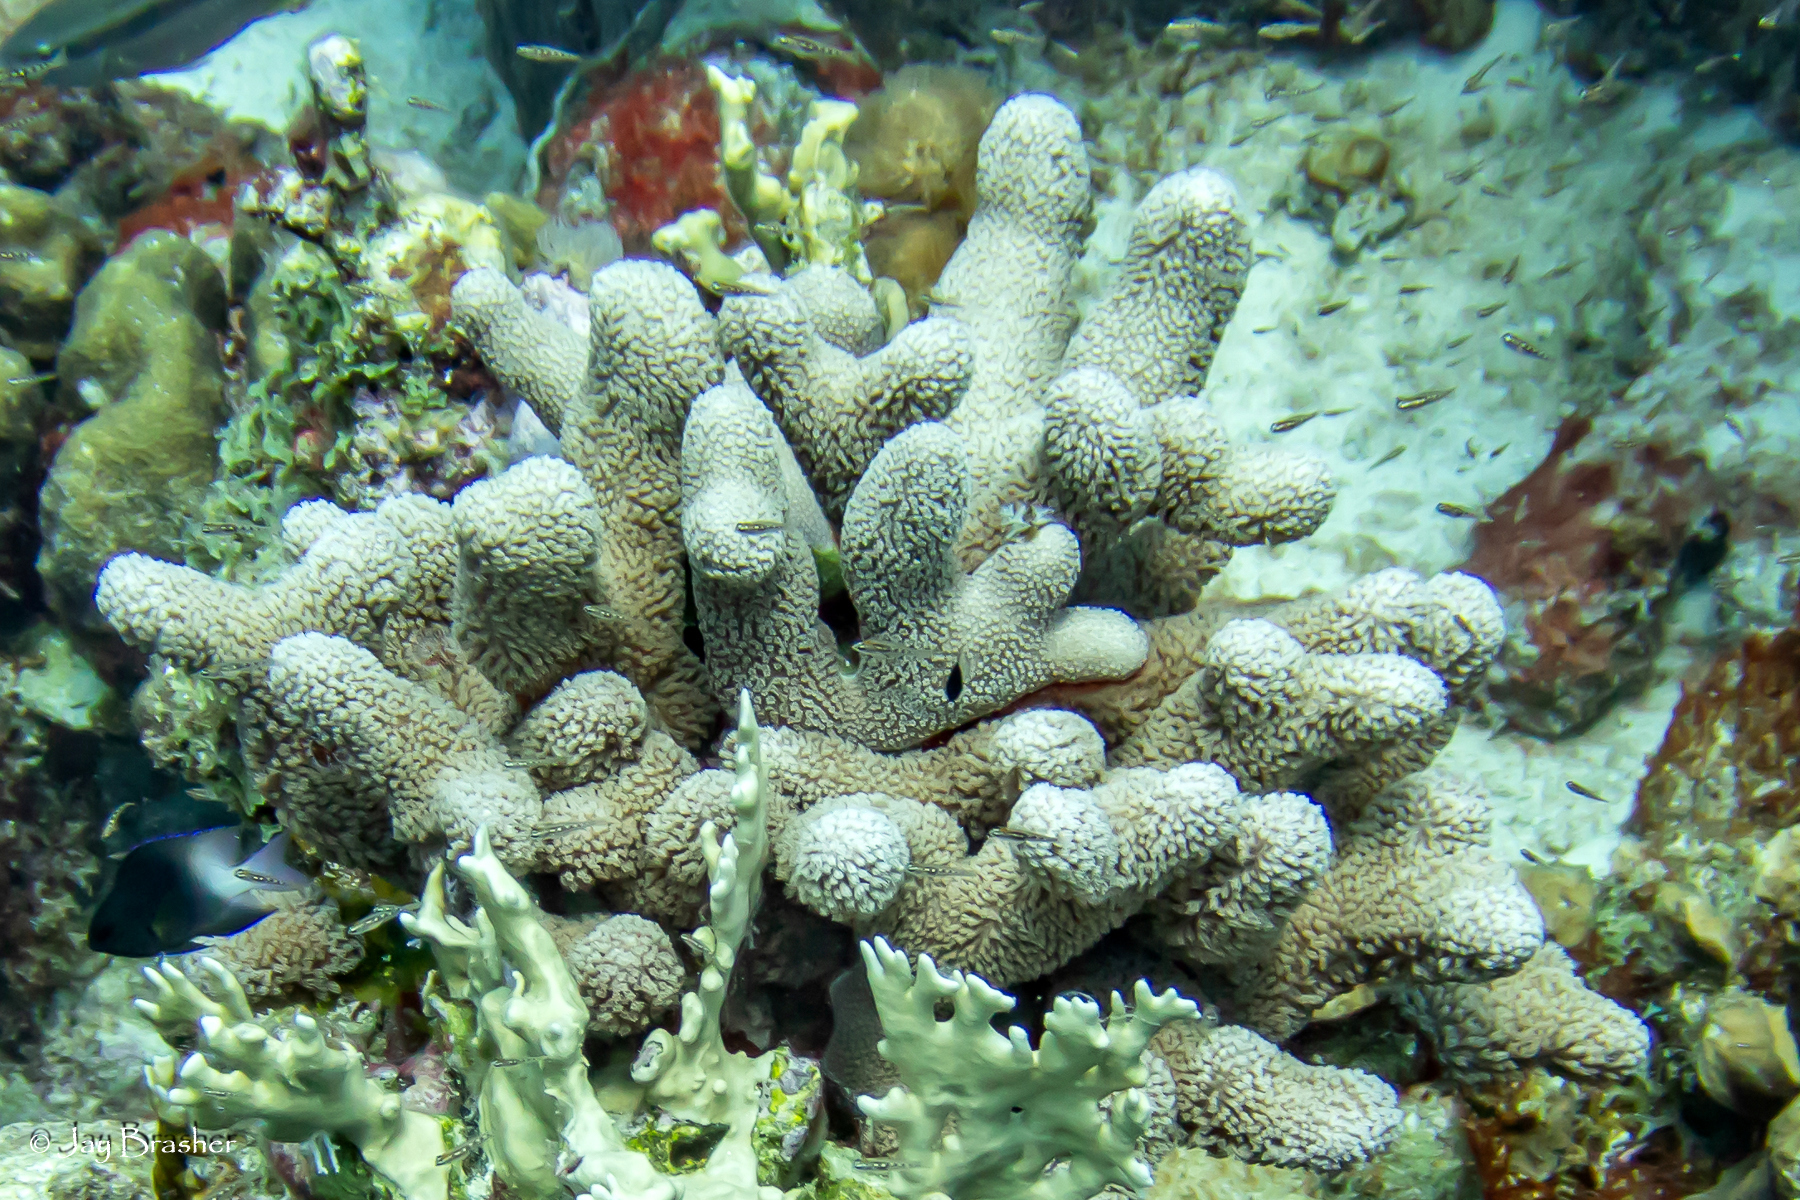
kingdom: Animalia
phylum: Cnidaria
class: Anthozoa
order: Scleractinia
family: Poritidae
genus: Porites
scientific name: Porites porites
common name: Finger coral
